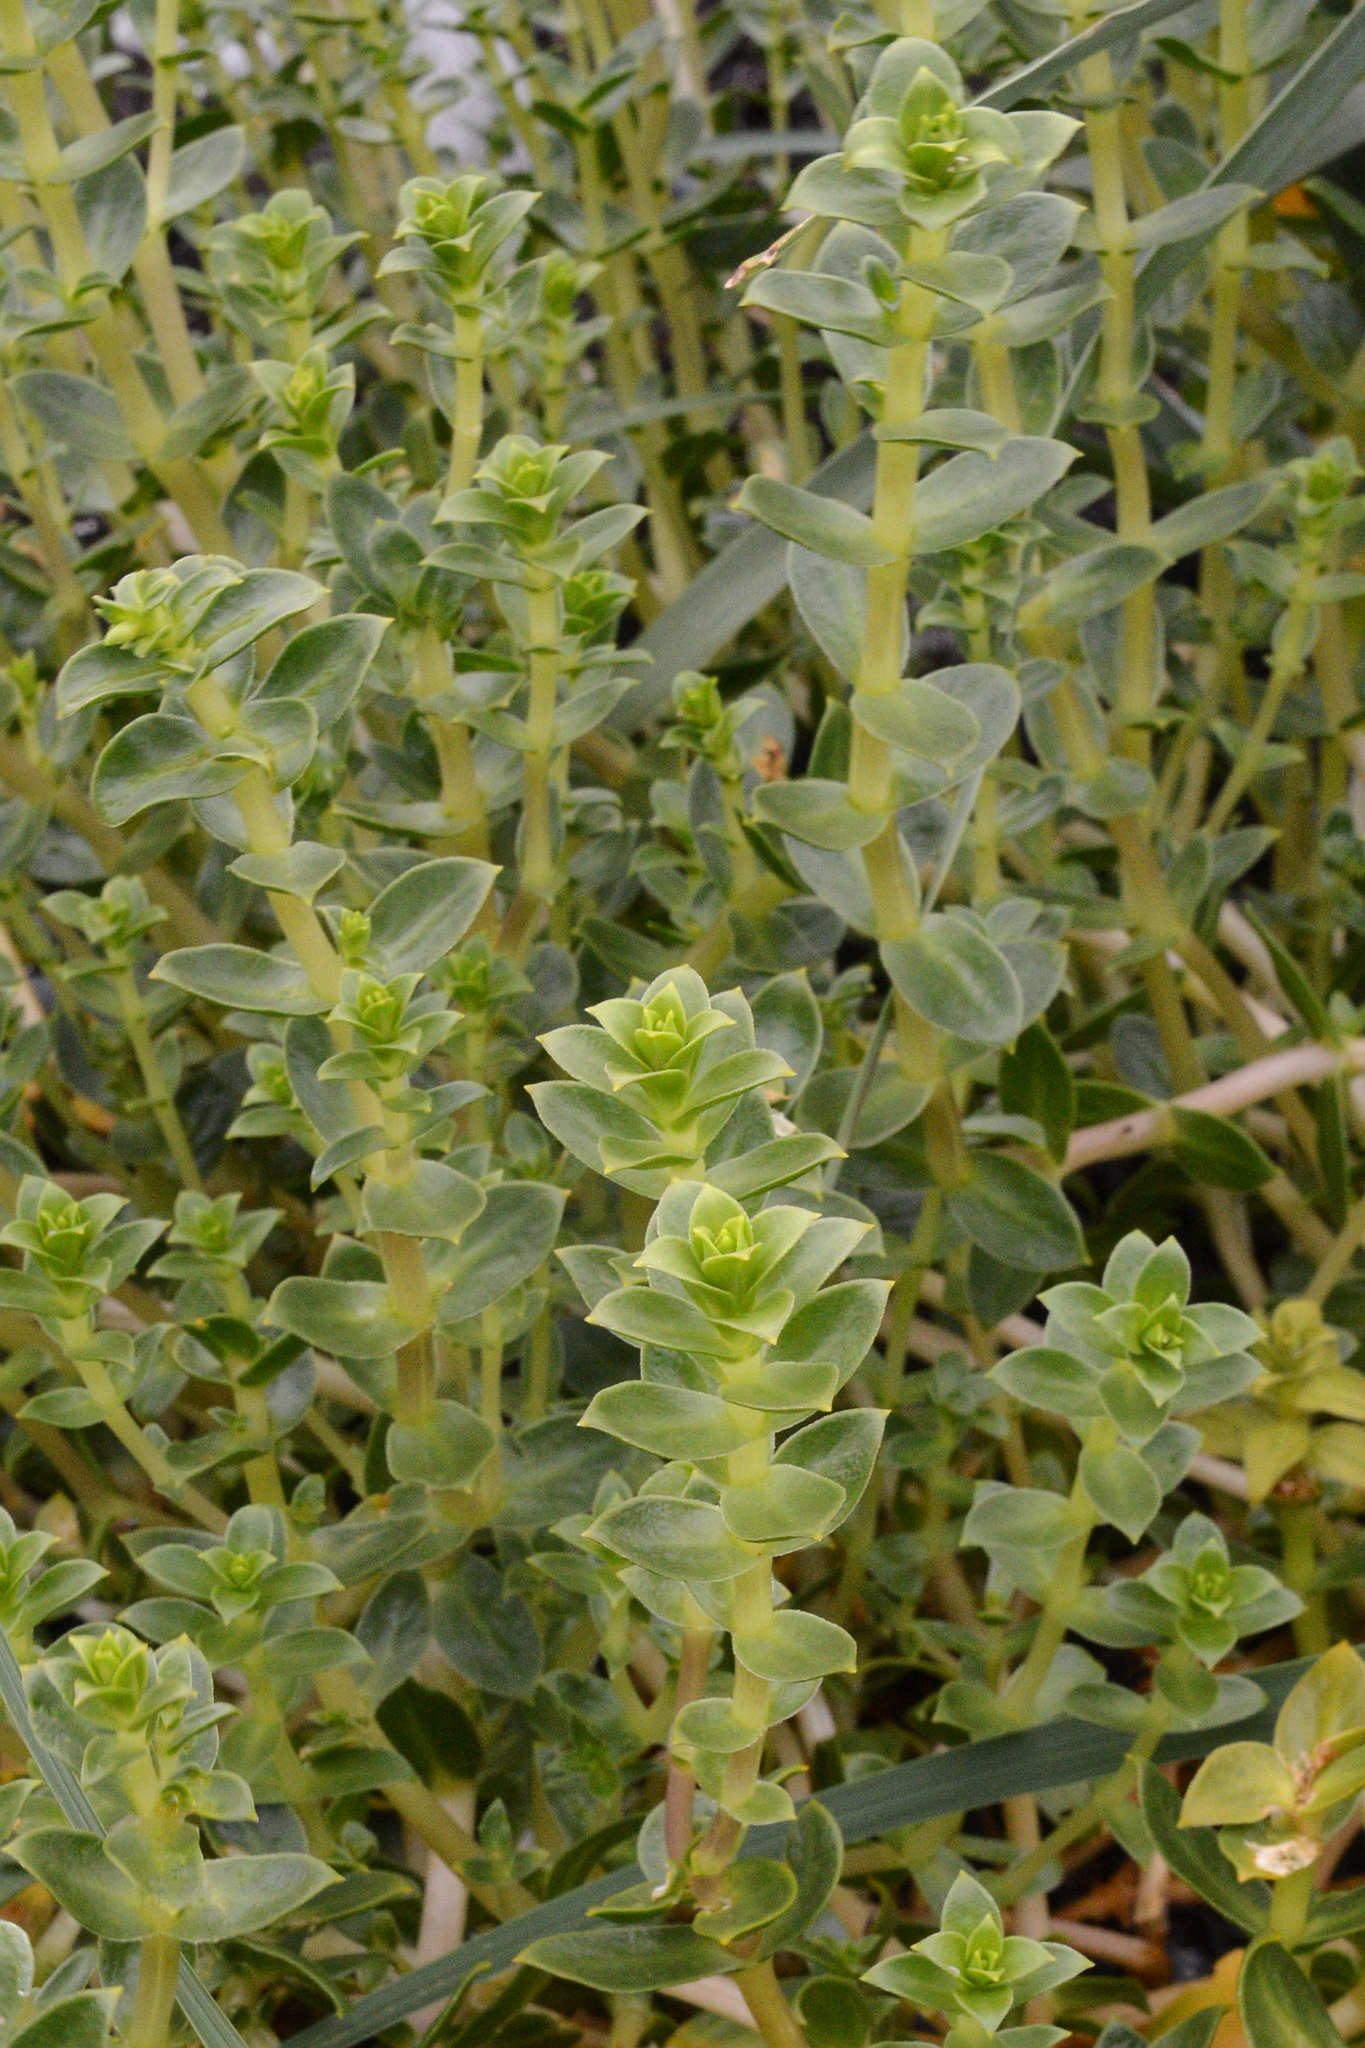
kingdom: Plantae
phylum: Tracheophyta
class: Magnoliopsida
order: Caryophyllales
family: Caryophyllaceae
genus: Honckenya
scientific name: Honckenya peploides
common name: Sea sandwort
